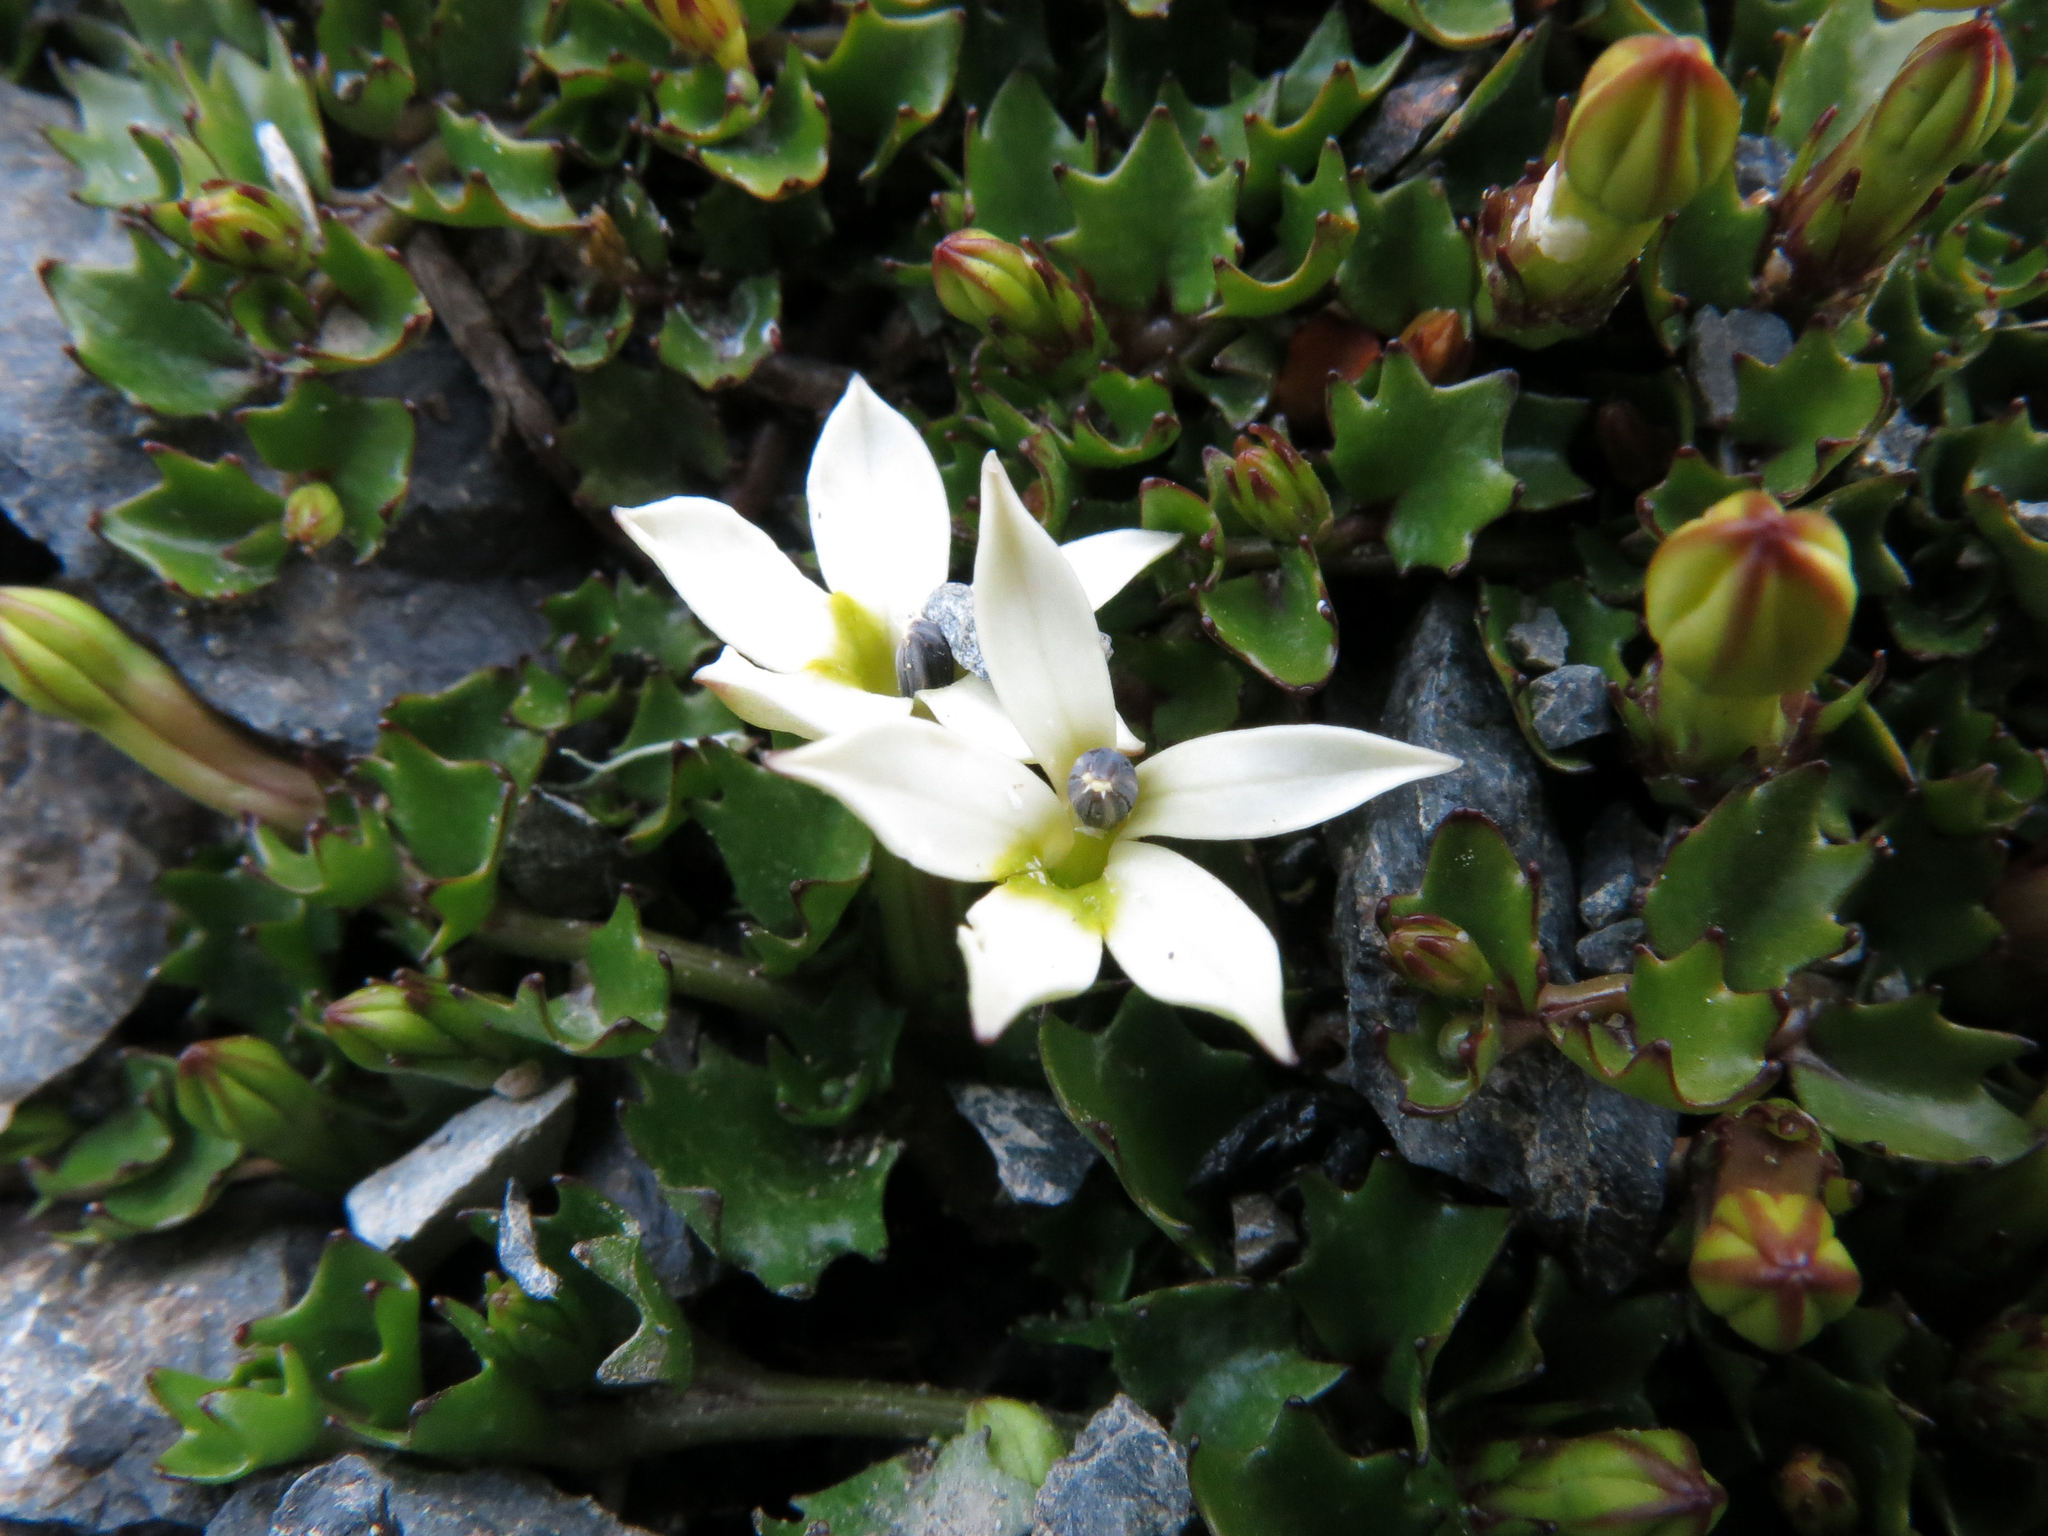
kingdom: Plantae
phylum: Tracheophyta
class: Magnoliopsida
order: Asterales
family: Campanulaceae
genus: Lobelia
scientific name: Lobelia macrodon
